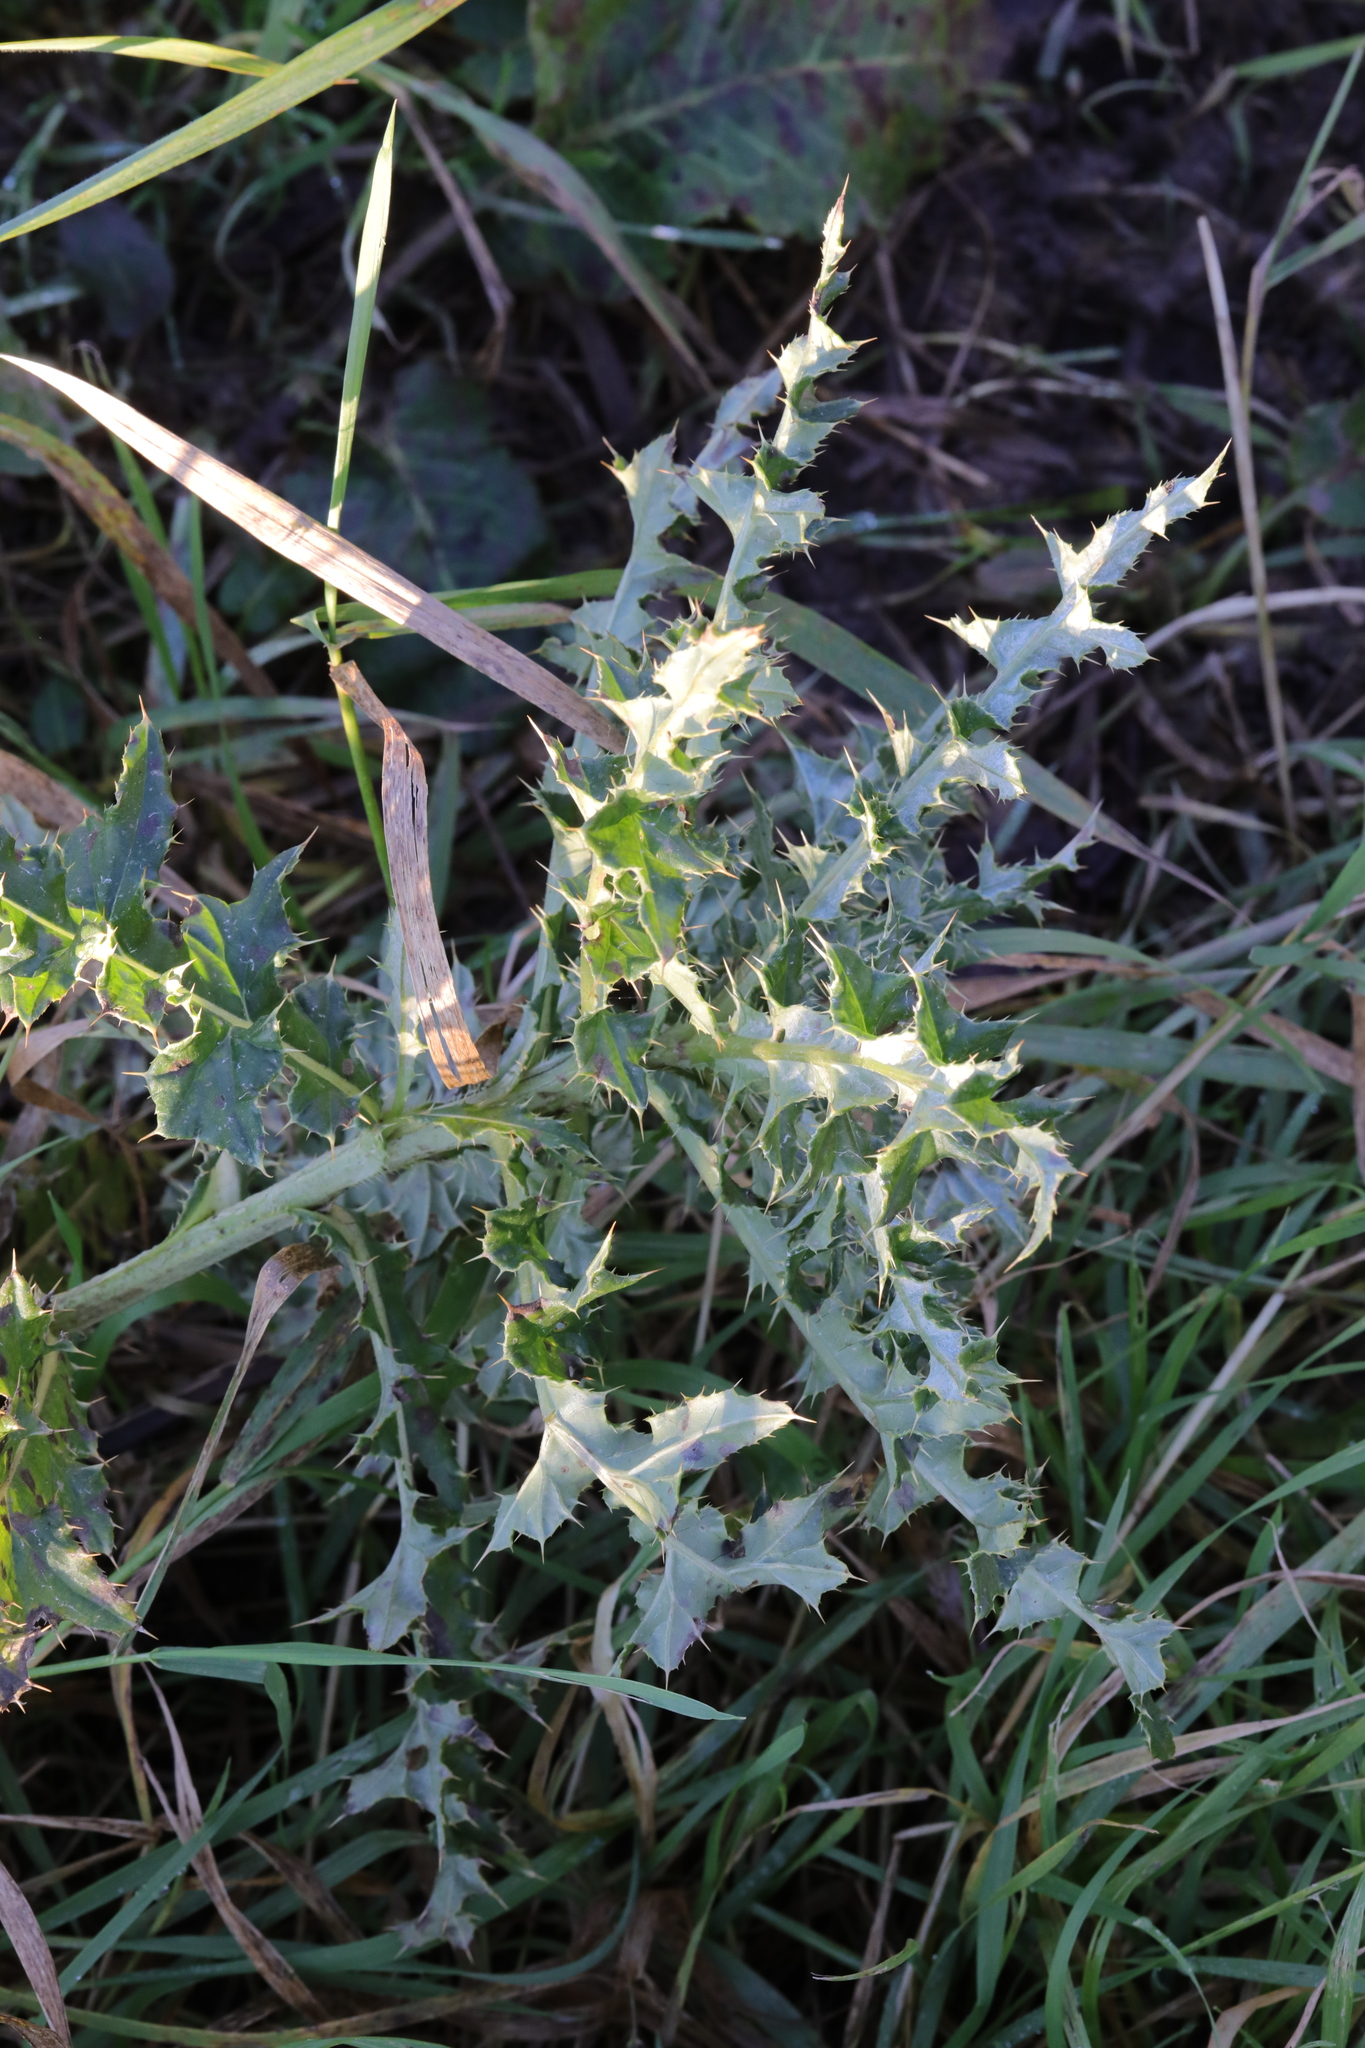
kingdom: Plantae
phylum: Tracheophyta
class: Magnoliopsida
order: Asterales
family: Asteraceae
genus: Cirsium
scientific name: Cirsium arvense
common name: Creeping thistle
